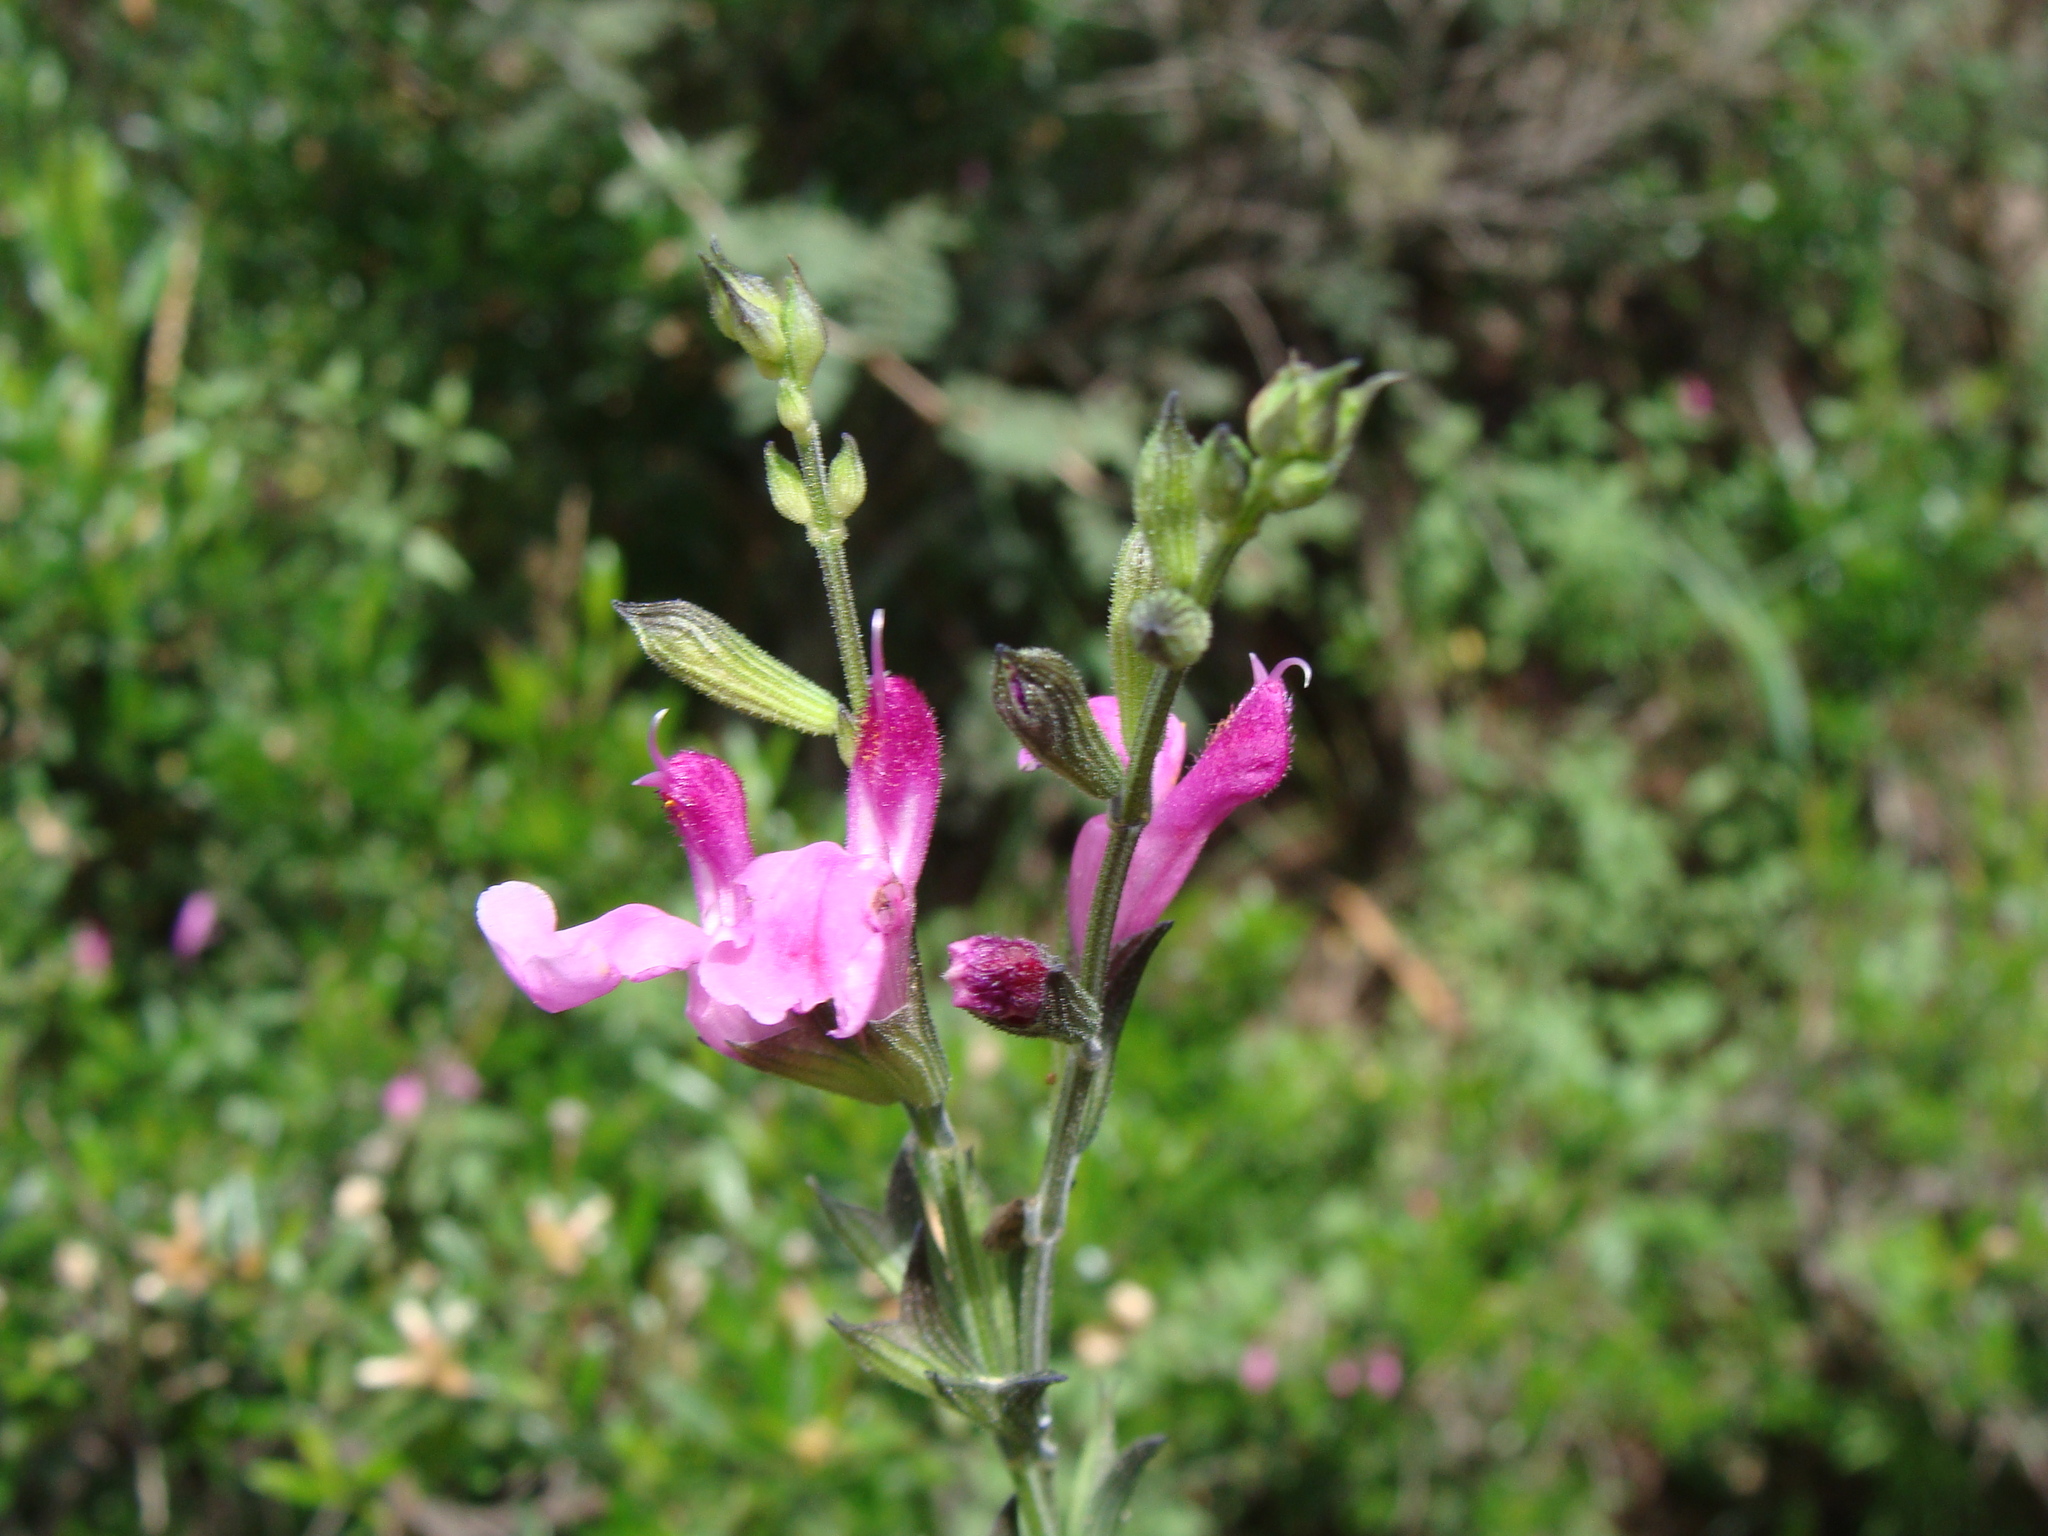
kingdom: Plantae
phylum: Tracheophyta
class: Magnoliopsida
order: Lamiales
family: Lamiaceae
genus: Salvia
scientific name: Salvia microphylla
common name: Baby sage
